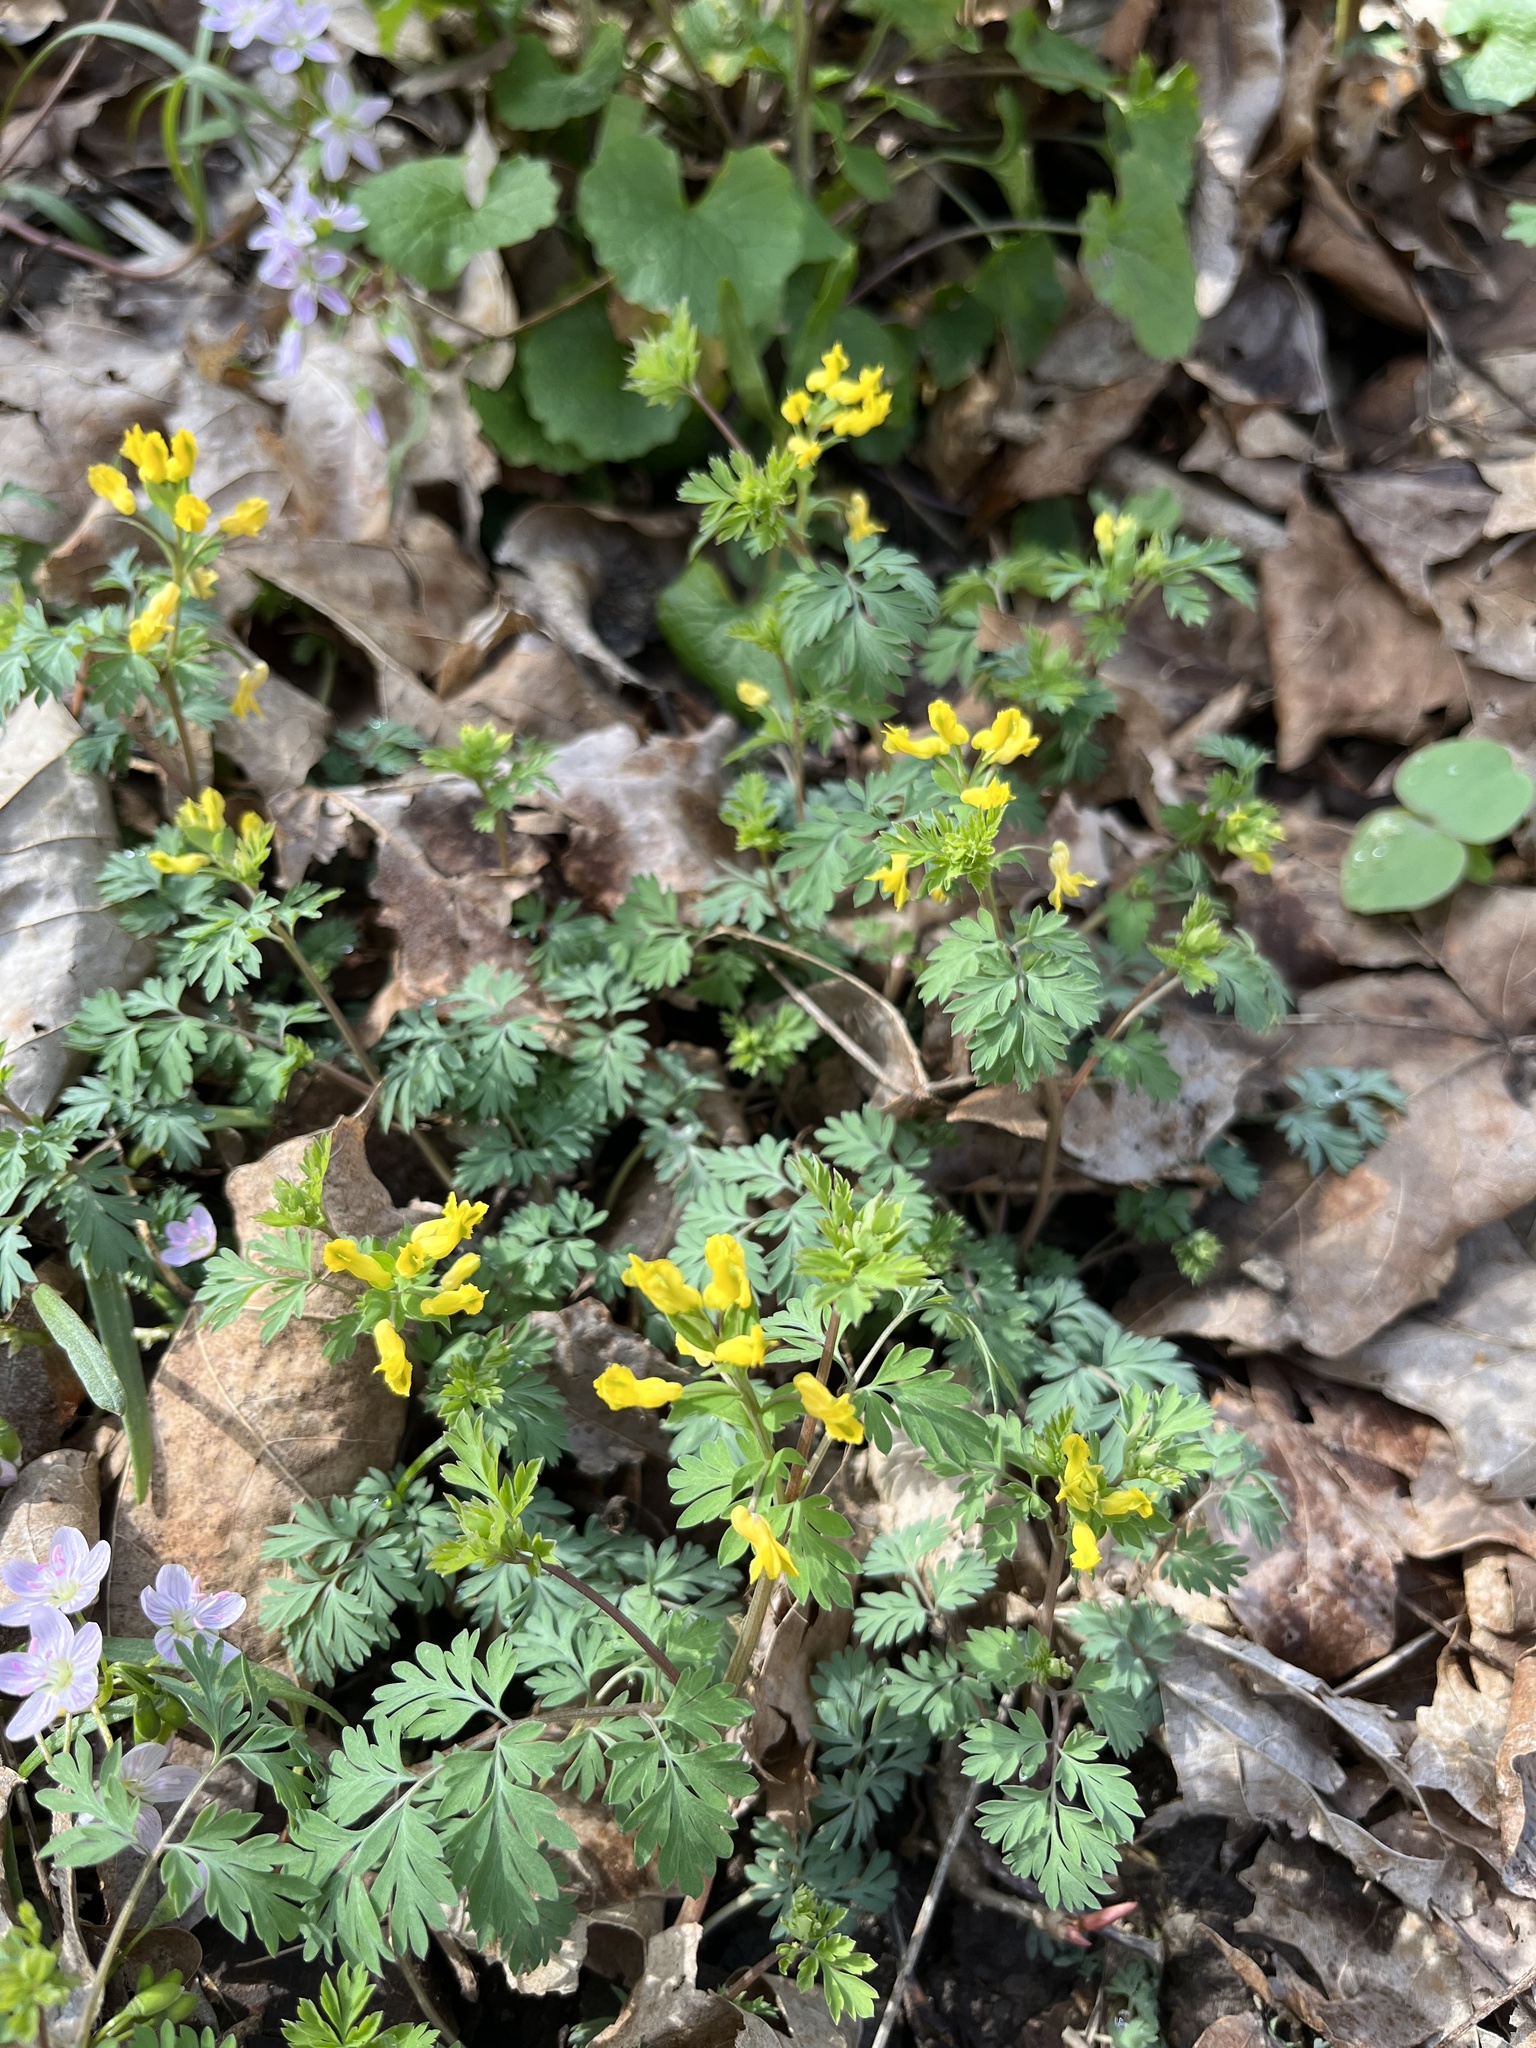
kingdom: Plantae
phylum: Tracheophyta
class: Magnoliopsida
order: Ranunculales
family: Papaveraceae
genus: Corydalis
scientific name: Corydalis flavula
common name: Yellow corydalis
